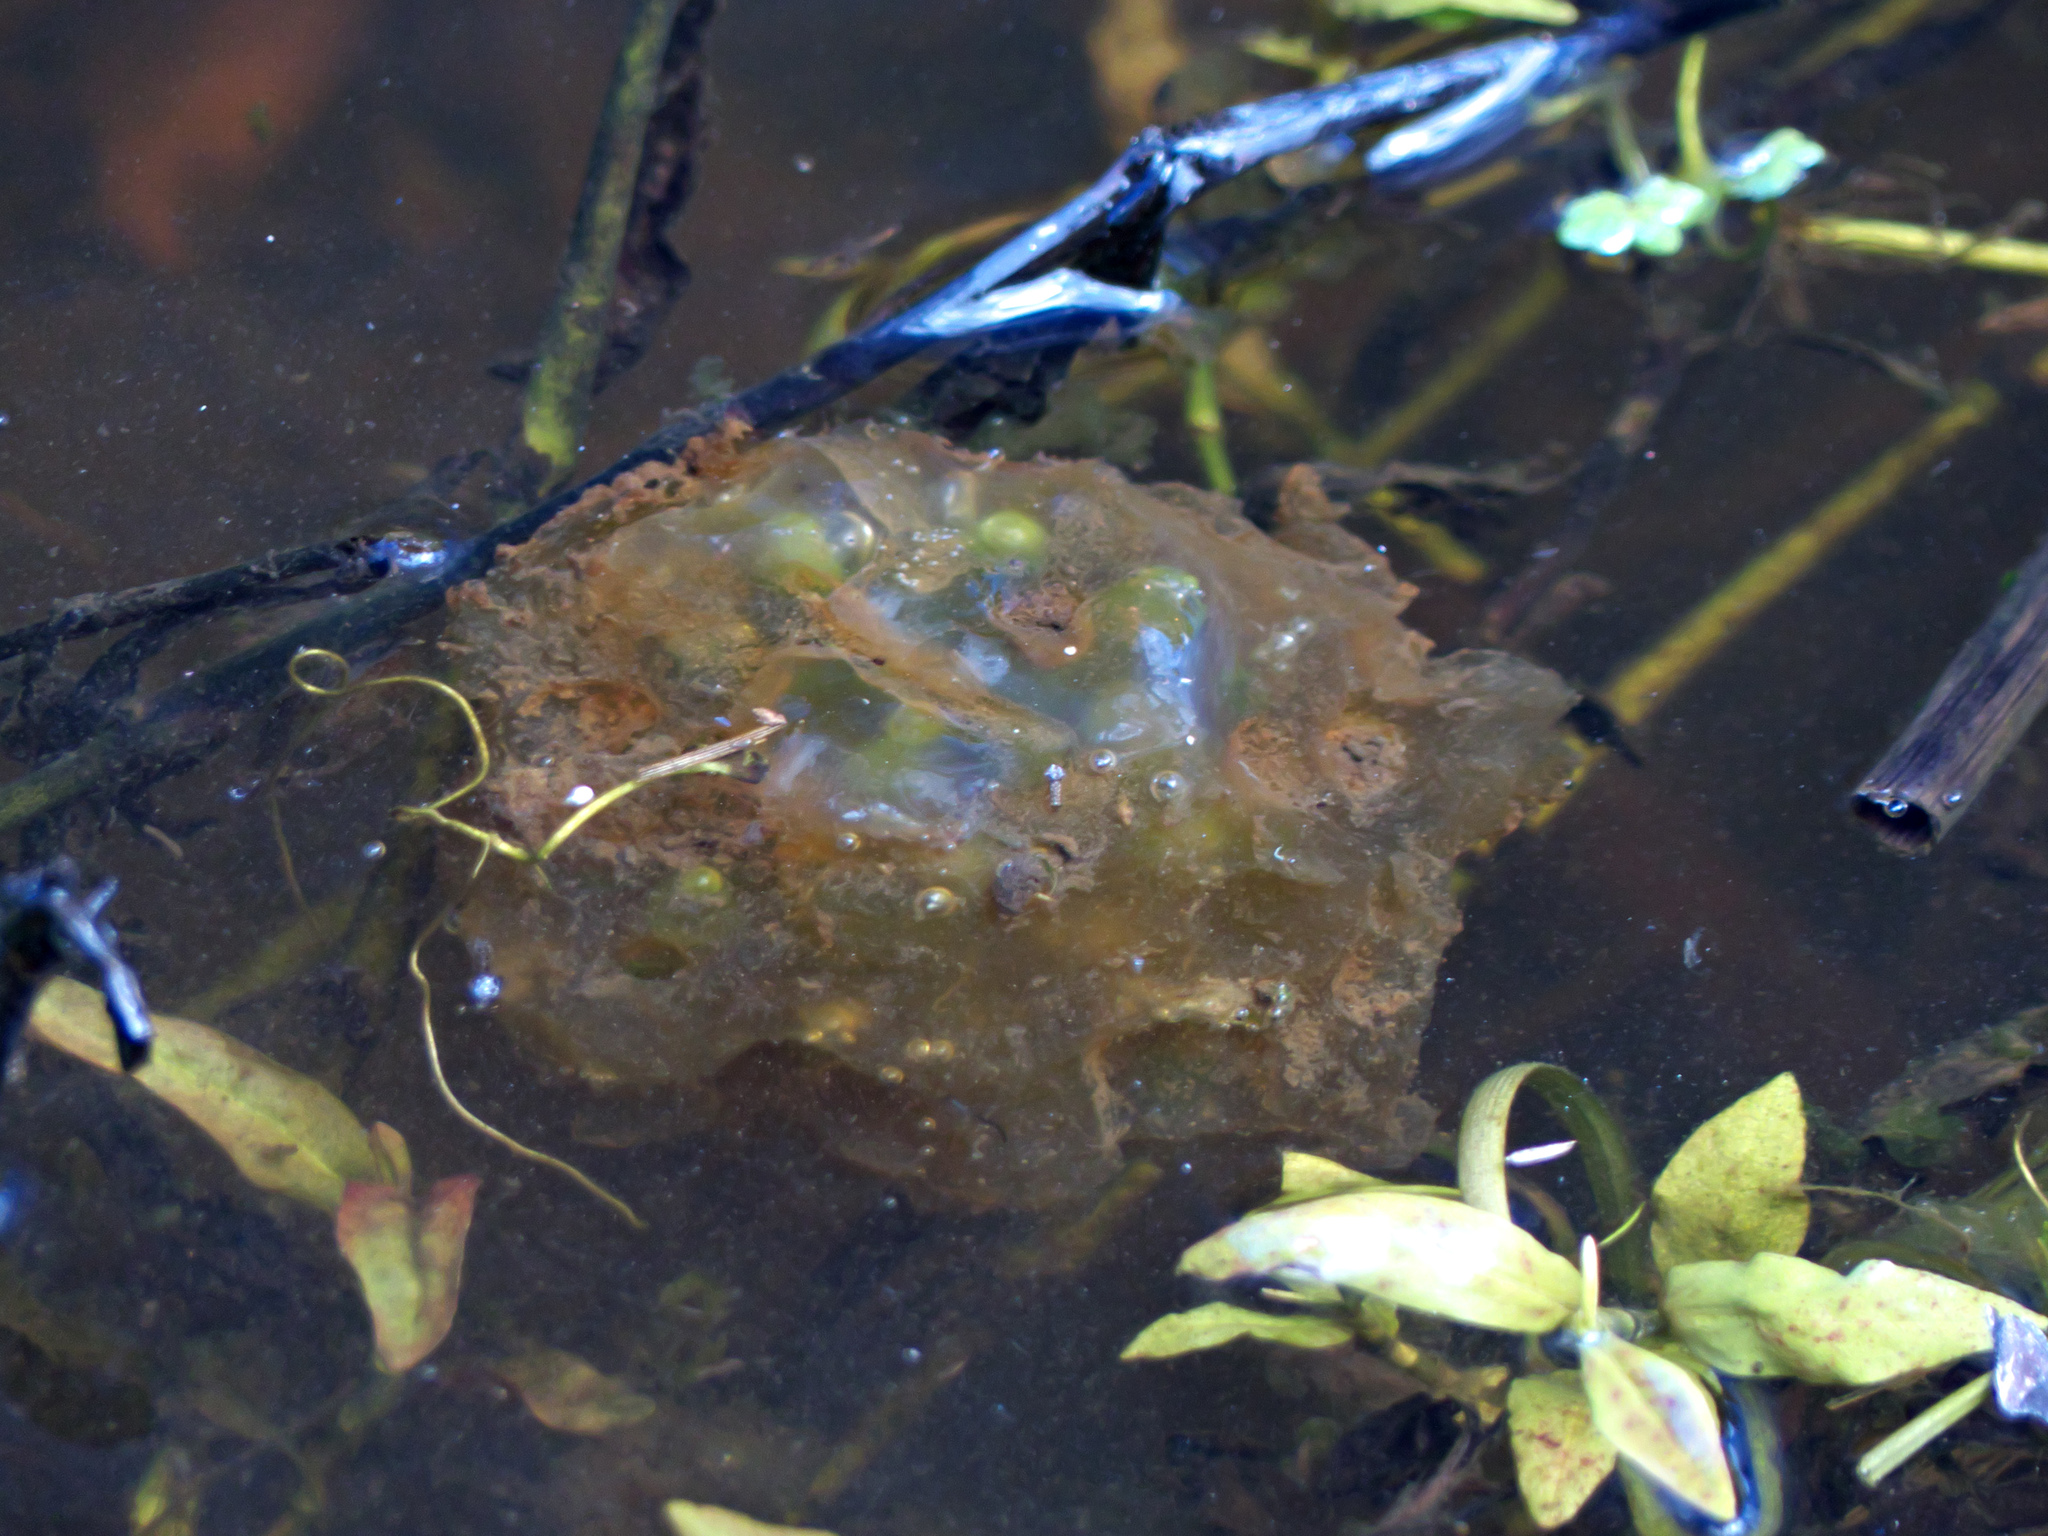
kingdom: Animalia
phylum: Chordata
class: Amphibia
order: Caudata
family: Ambystomatidae
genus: Ambystoma
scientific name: Ambystoma gracile
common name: Northwestern salamander
